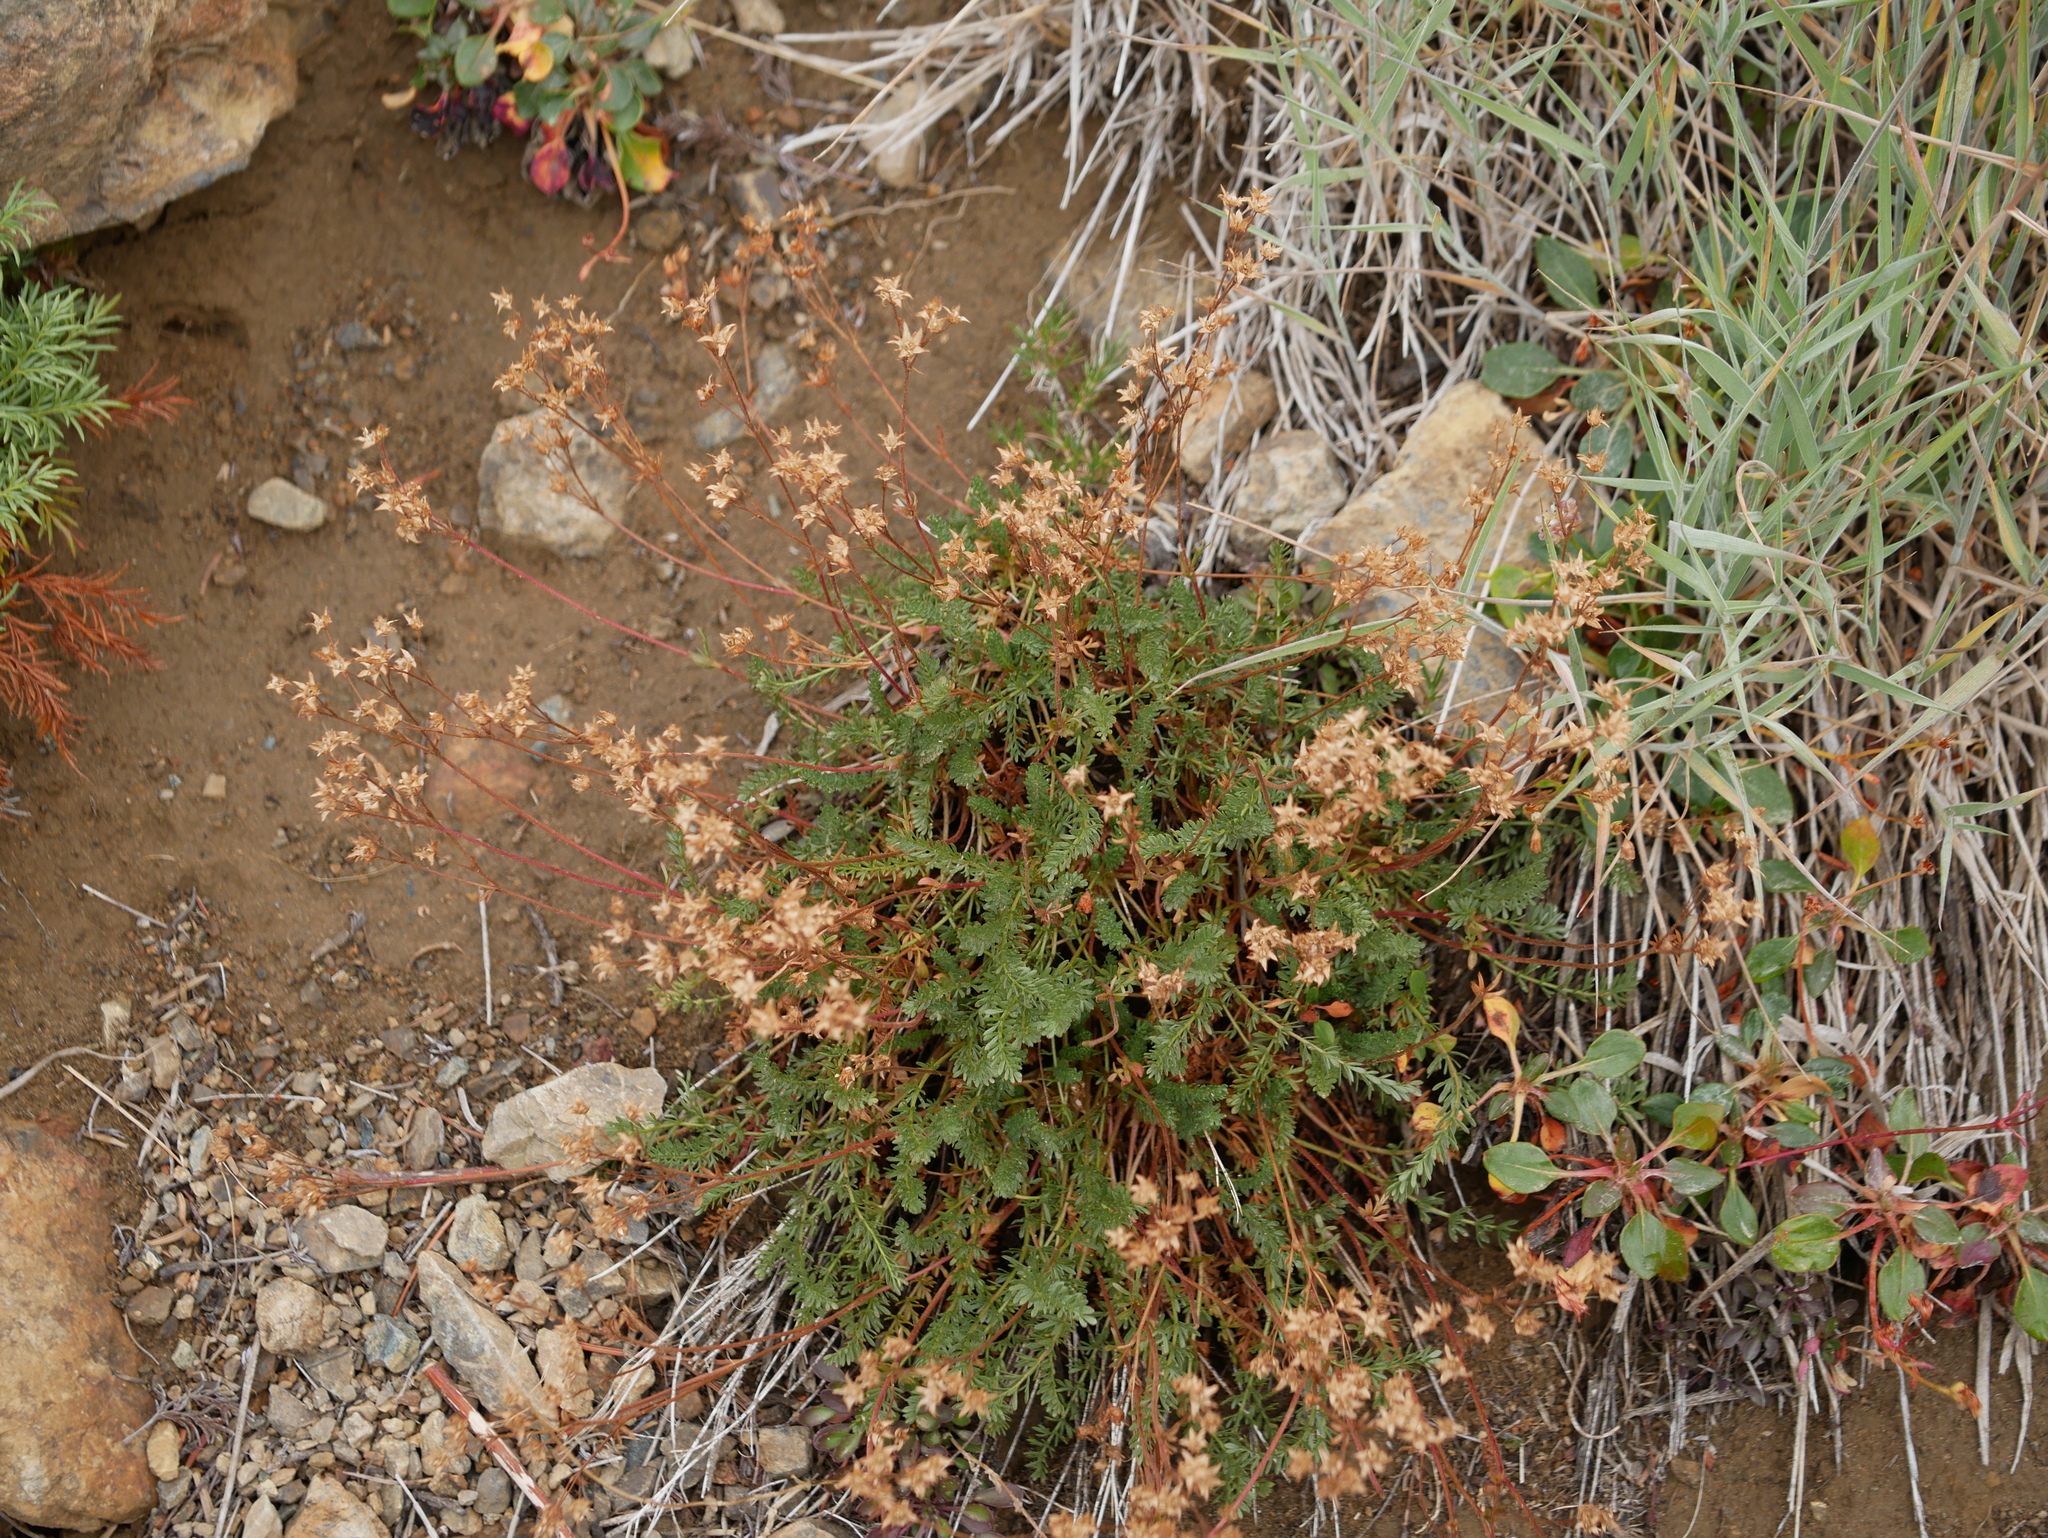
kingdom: Plantae
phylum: Tracheophyta
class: Magnoliopsida
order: Rosales
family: Rosaceae
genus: Potentilla
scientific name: Potentilla tweedyi
